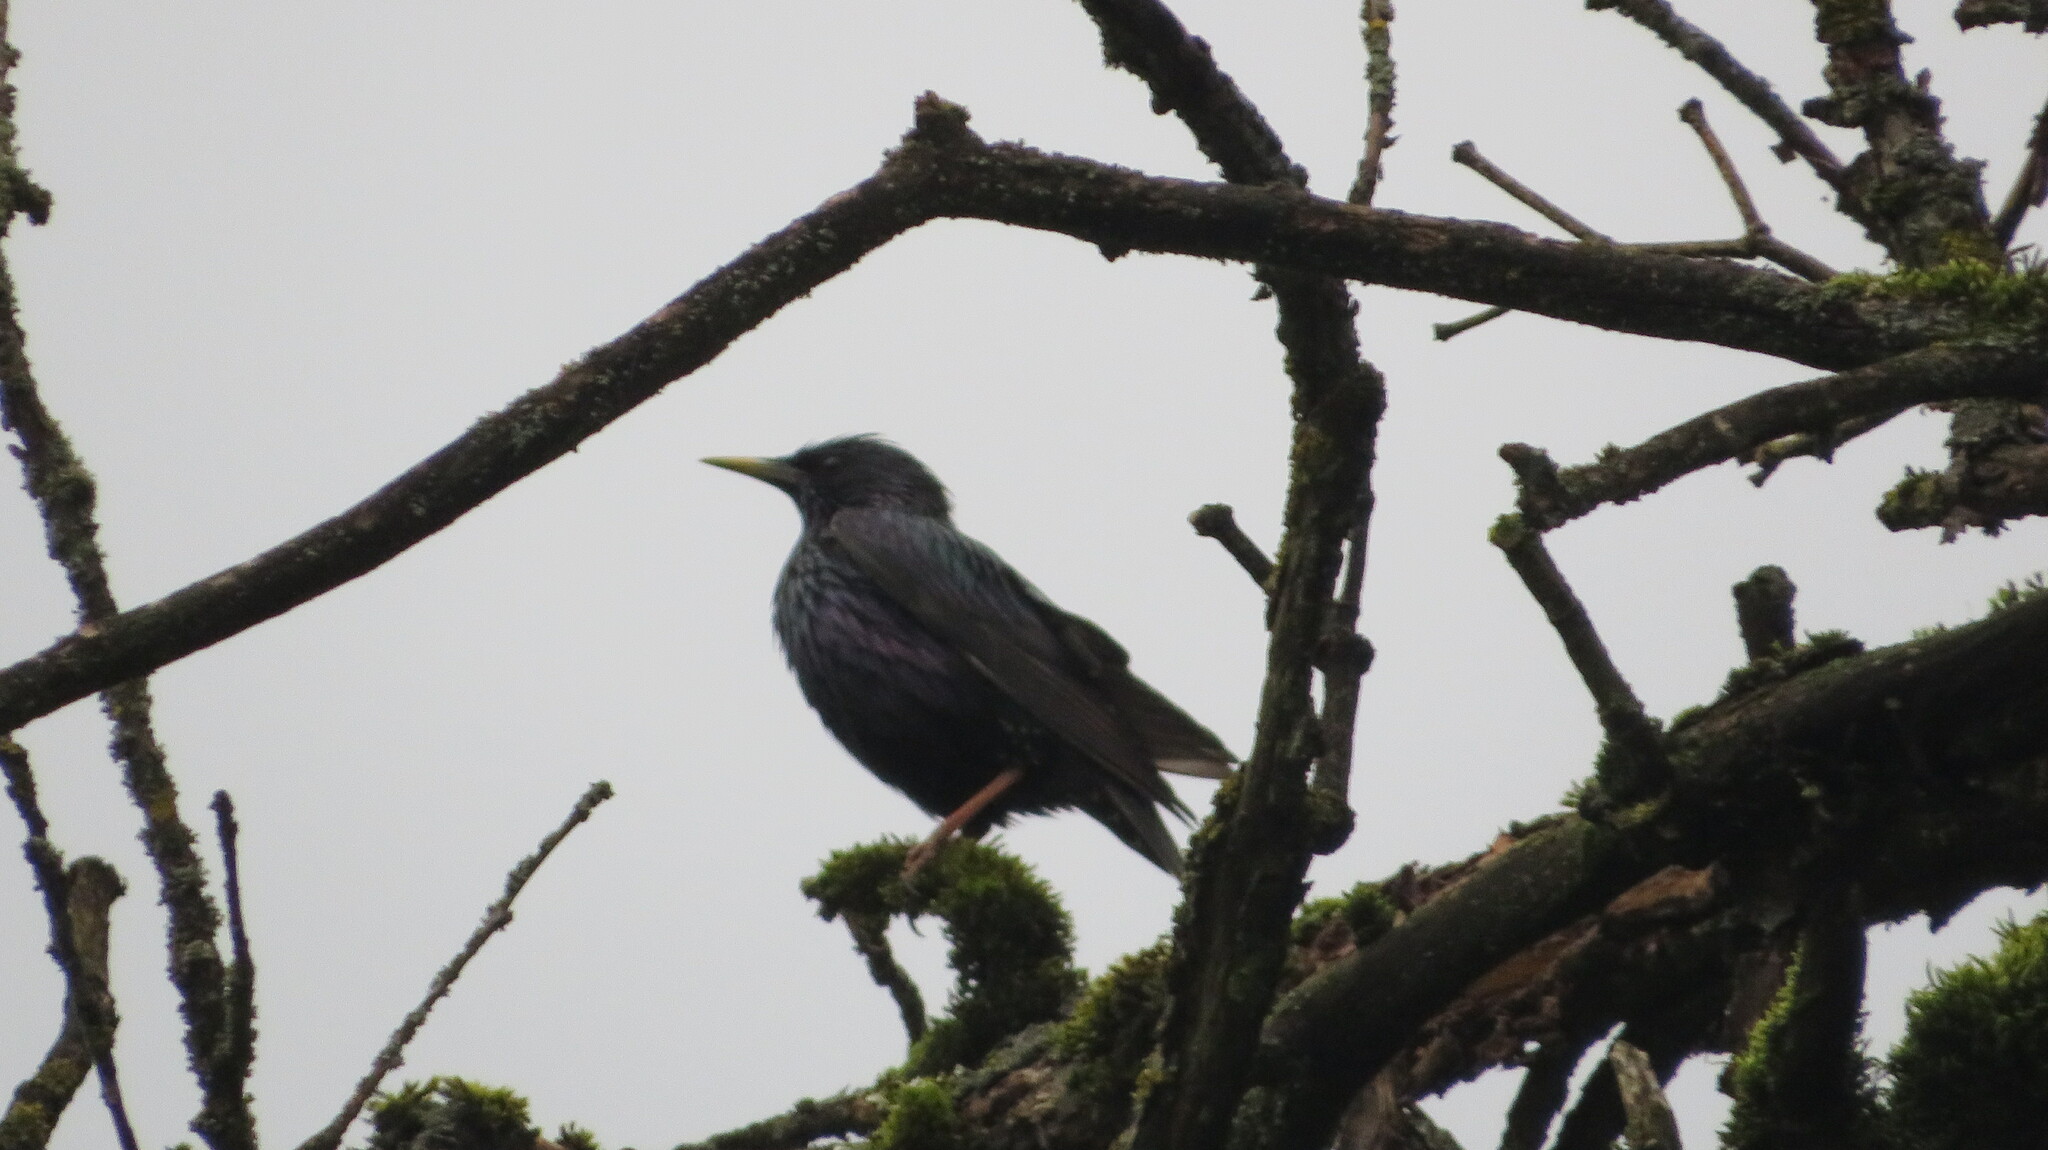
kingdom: Animalia
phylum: Chordata
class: Aves
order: Passeriformes
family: Sturnidae
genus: Sturnus
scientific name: Sturnus vulgaris
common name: Common starling
